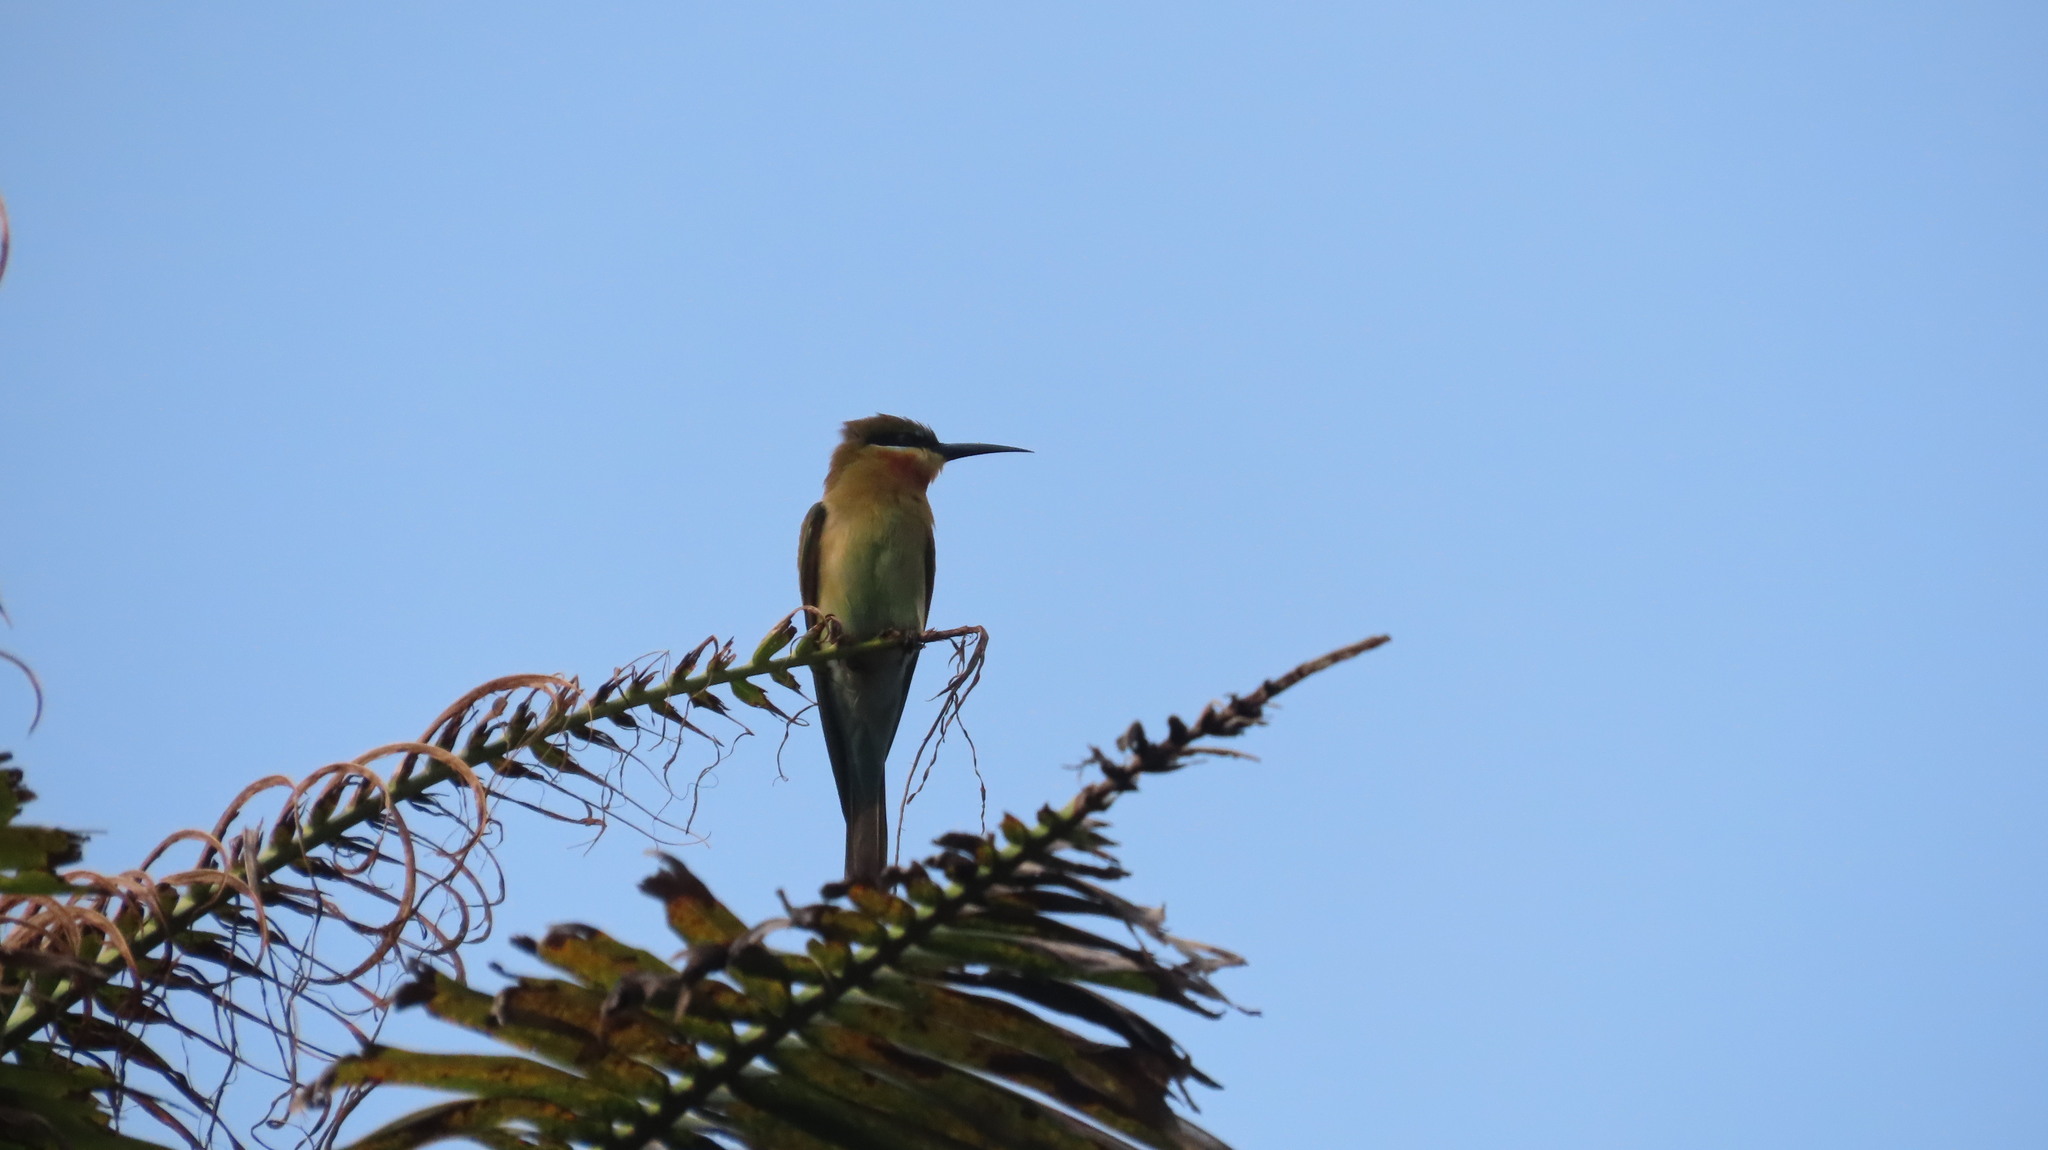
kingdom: Animalia
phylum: Chordata
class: Aves
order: Coraciiformes
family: Meropidae
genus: Merops
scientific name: Merops philippinus
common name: Blue-tailed bee-eater
